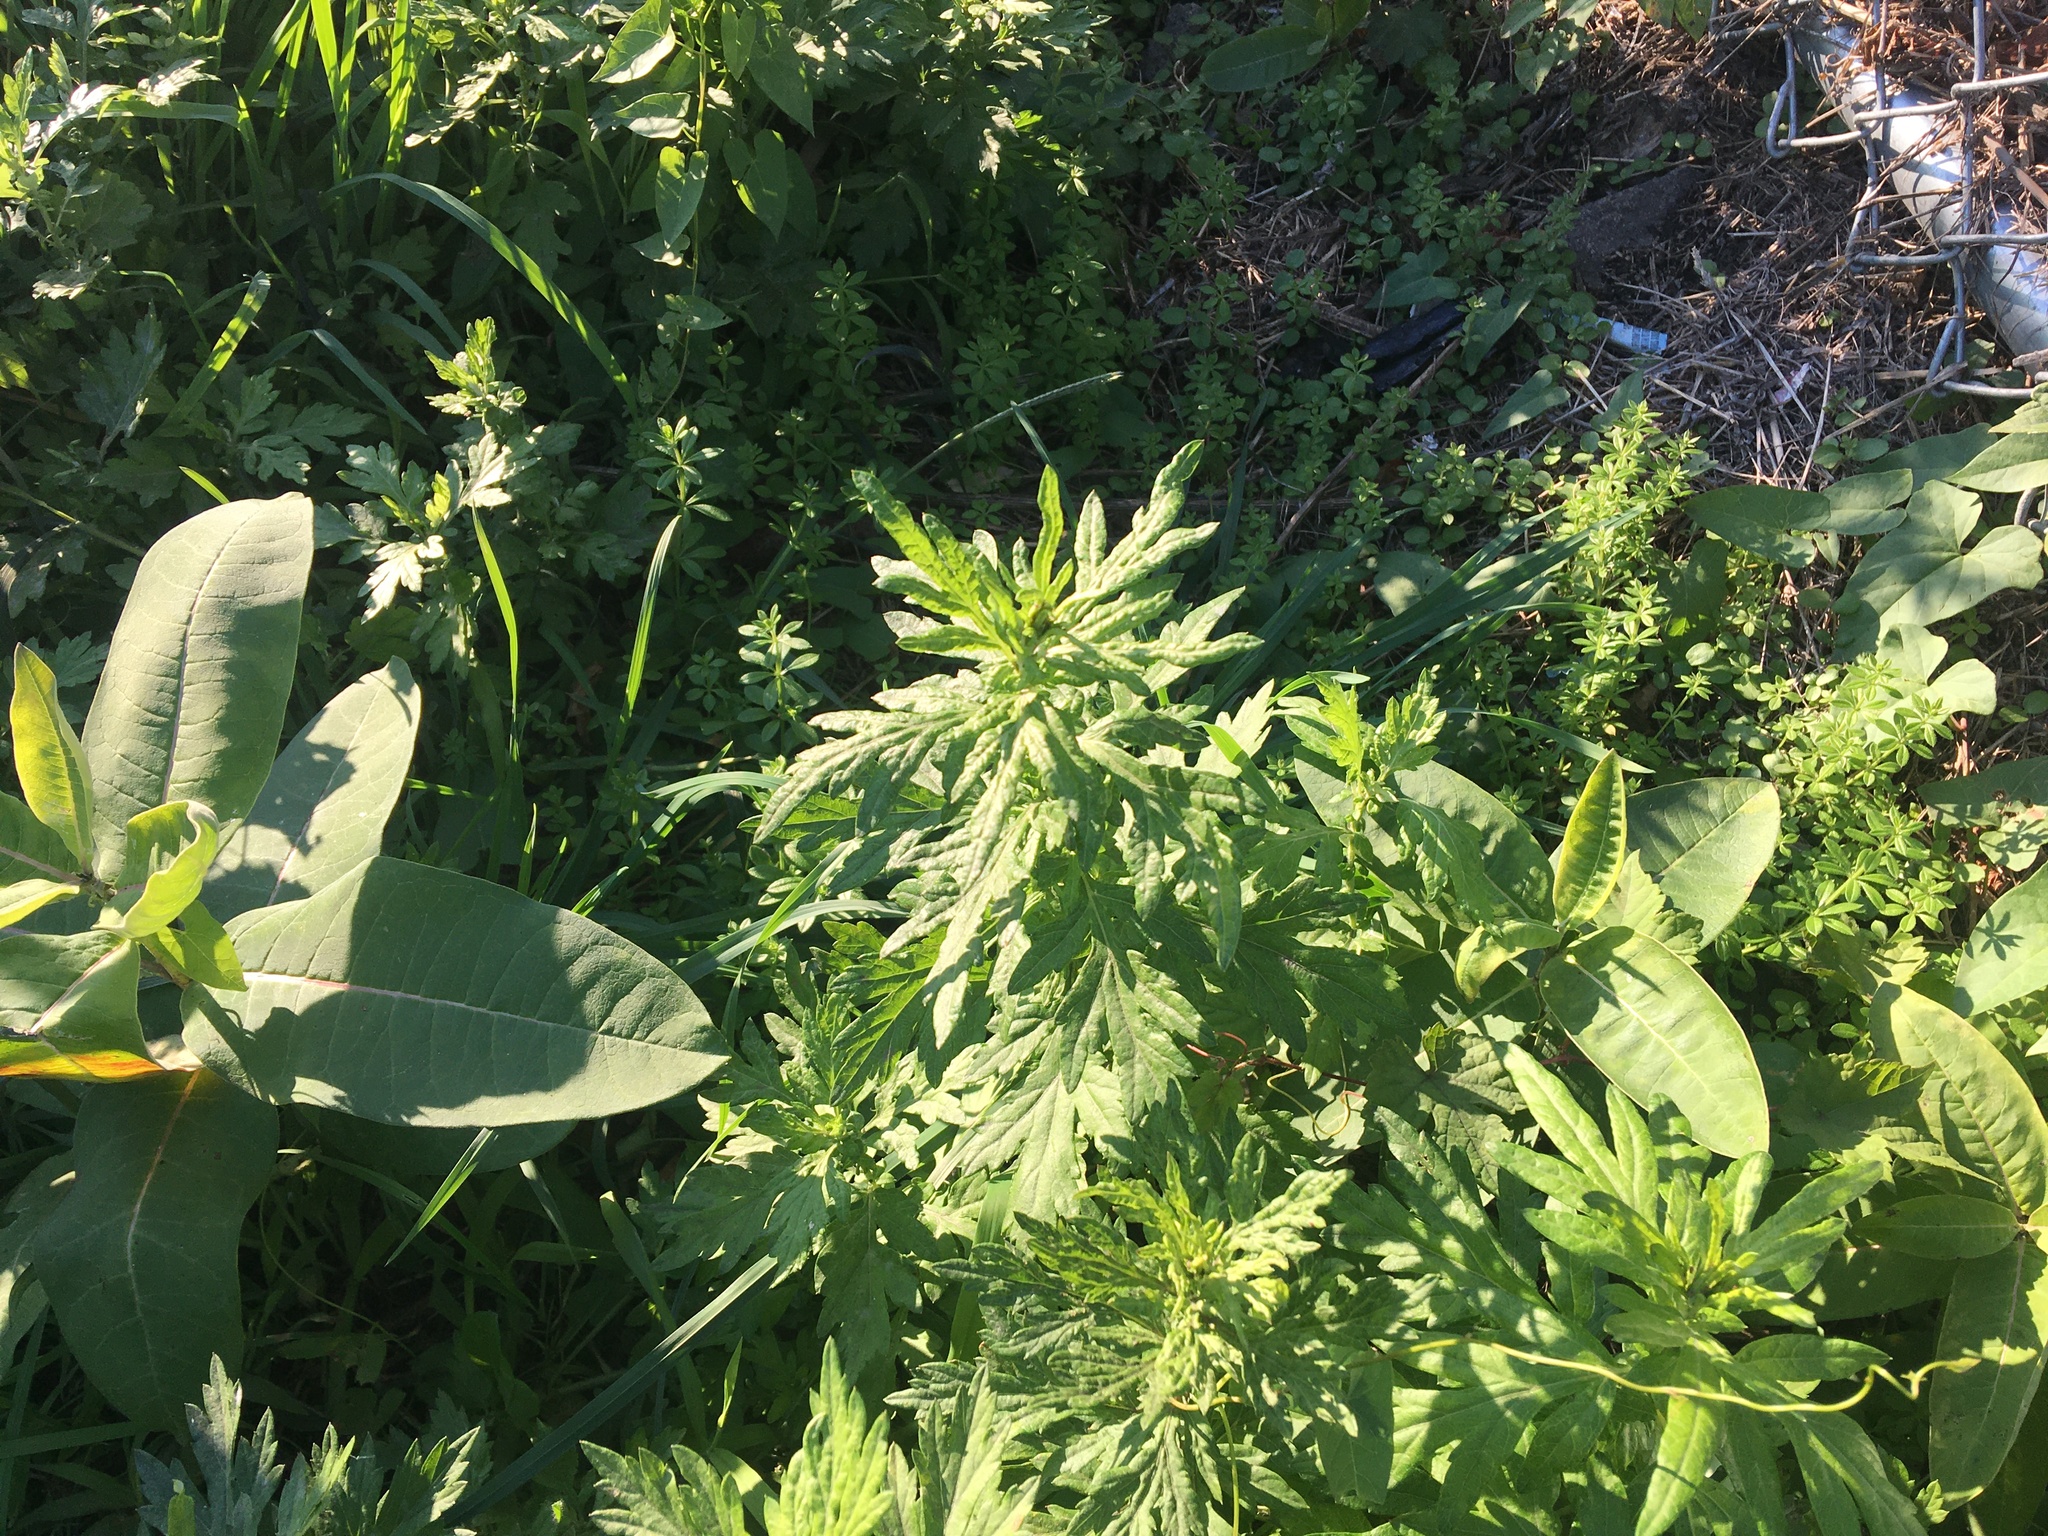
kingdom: Plantae
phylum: Tracheophyta
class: Magnoliopsida
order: Asterales
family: Asteraceae
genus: Artemisia
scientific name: Artemisia vulgaris
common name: Mugwort
